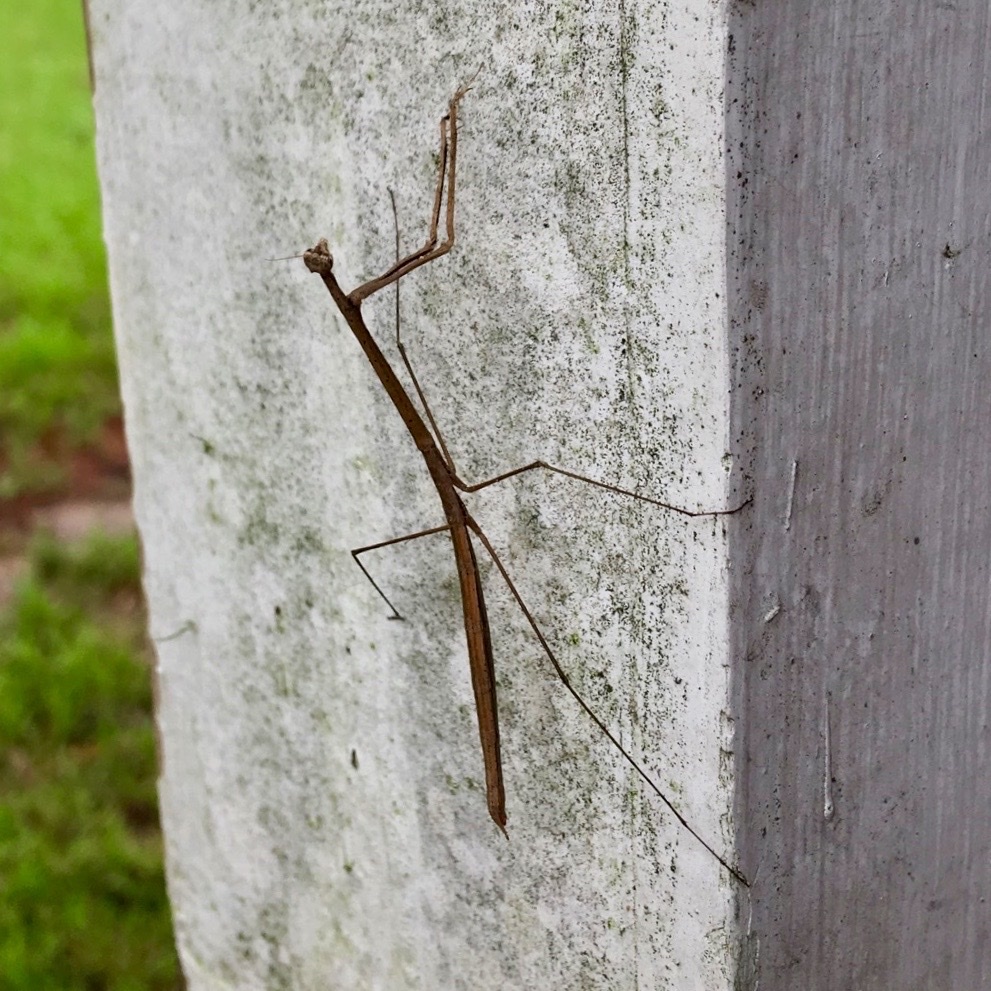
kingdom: Animalia
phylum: Arthropoda
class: Insecta
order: Mantodea
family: Thespidae
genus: Thesprotia
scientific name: Thesprotia graminis
